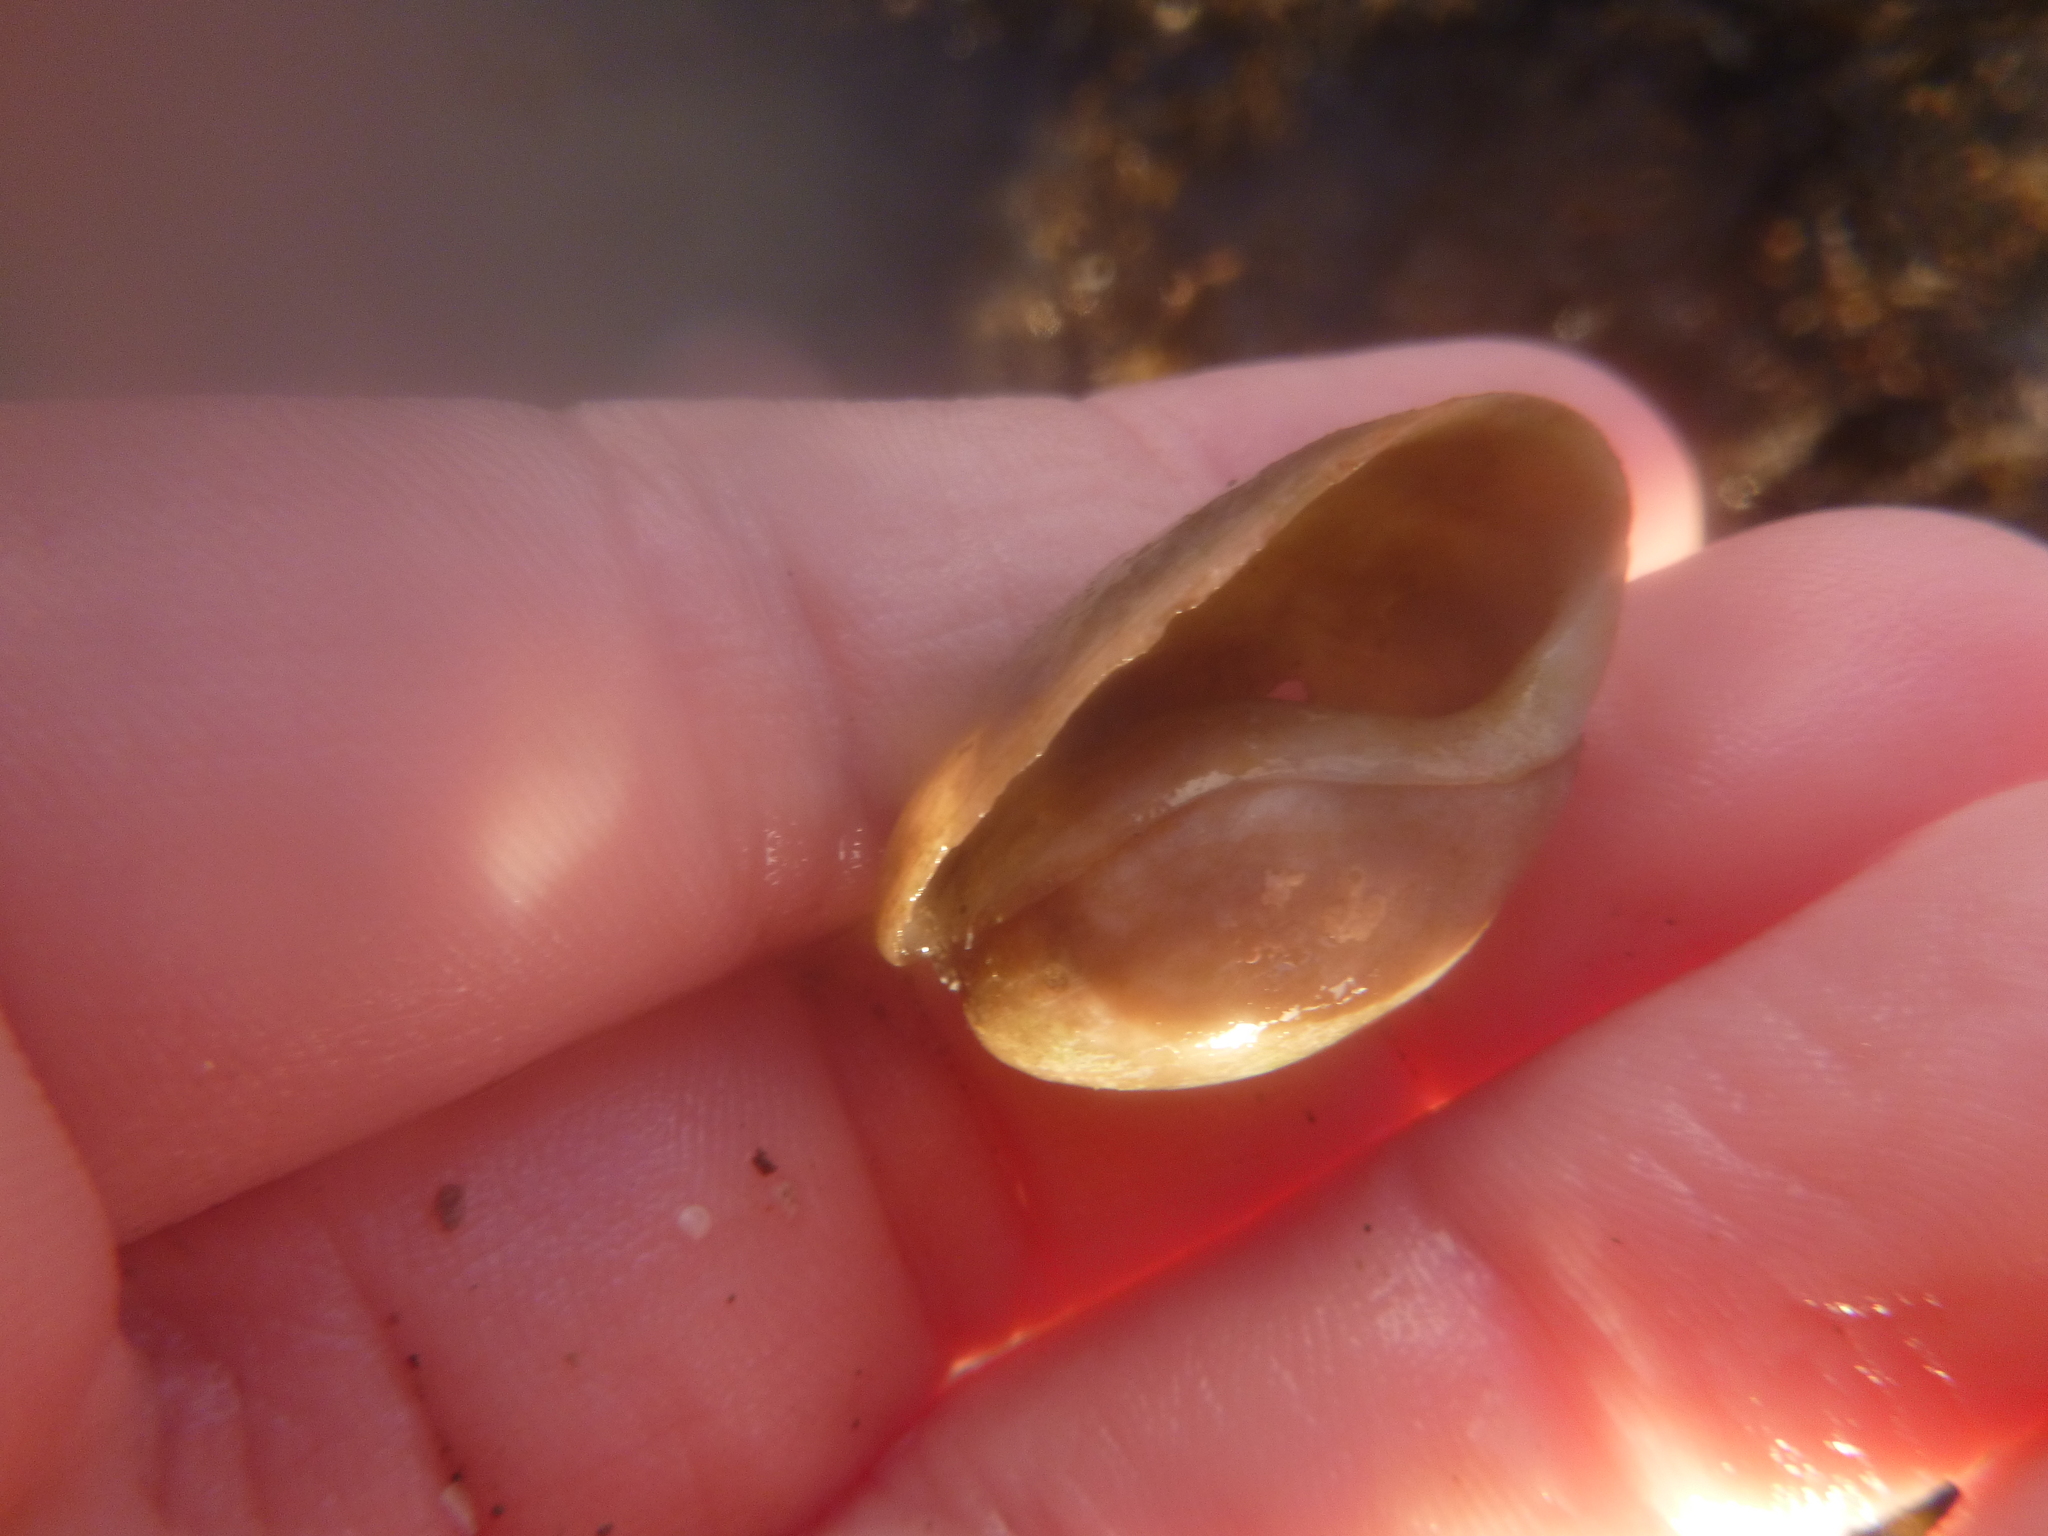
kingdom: Animalia
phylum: Mollusca
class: Gastropoda
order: Cephalaspidea
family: Bullidae
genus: Bulla
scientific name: Bulla quoyii
